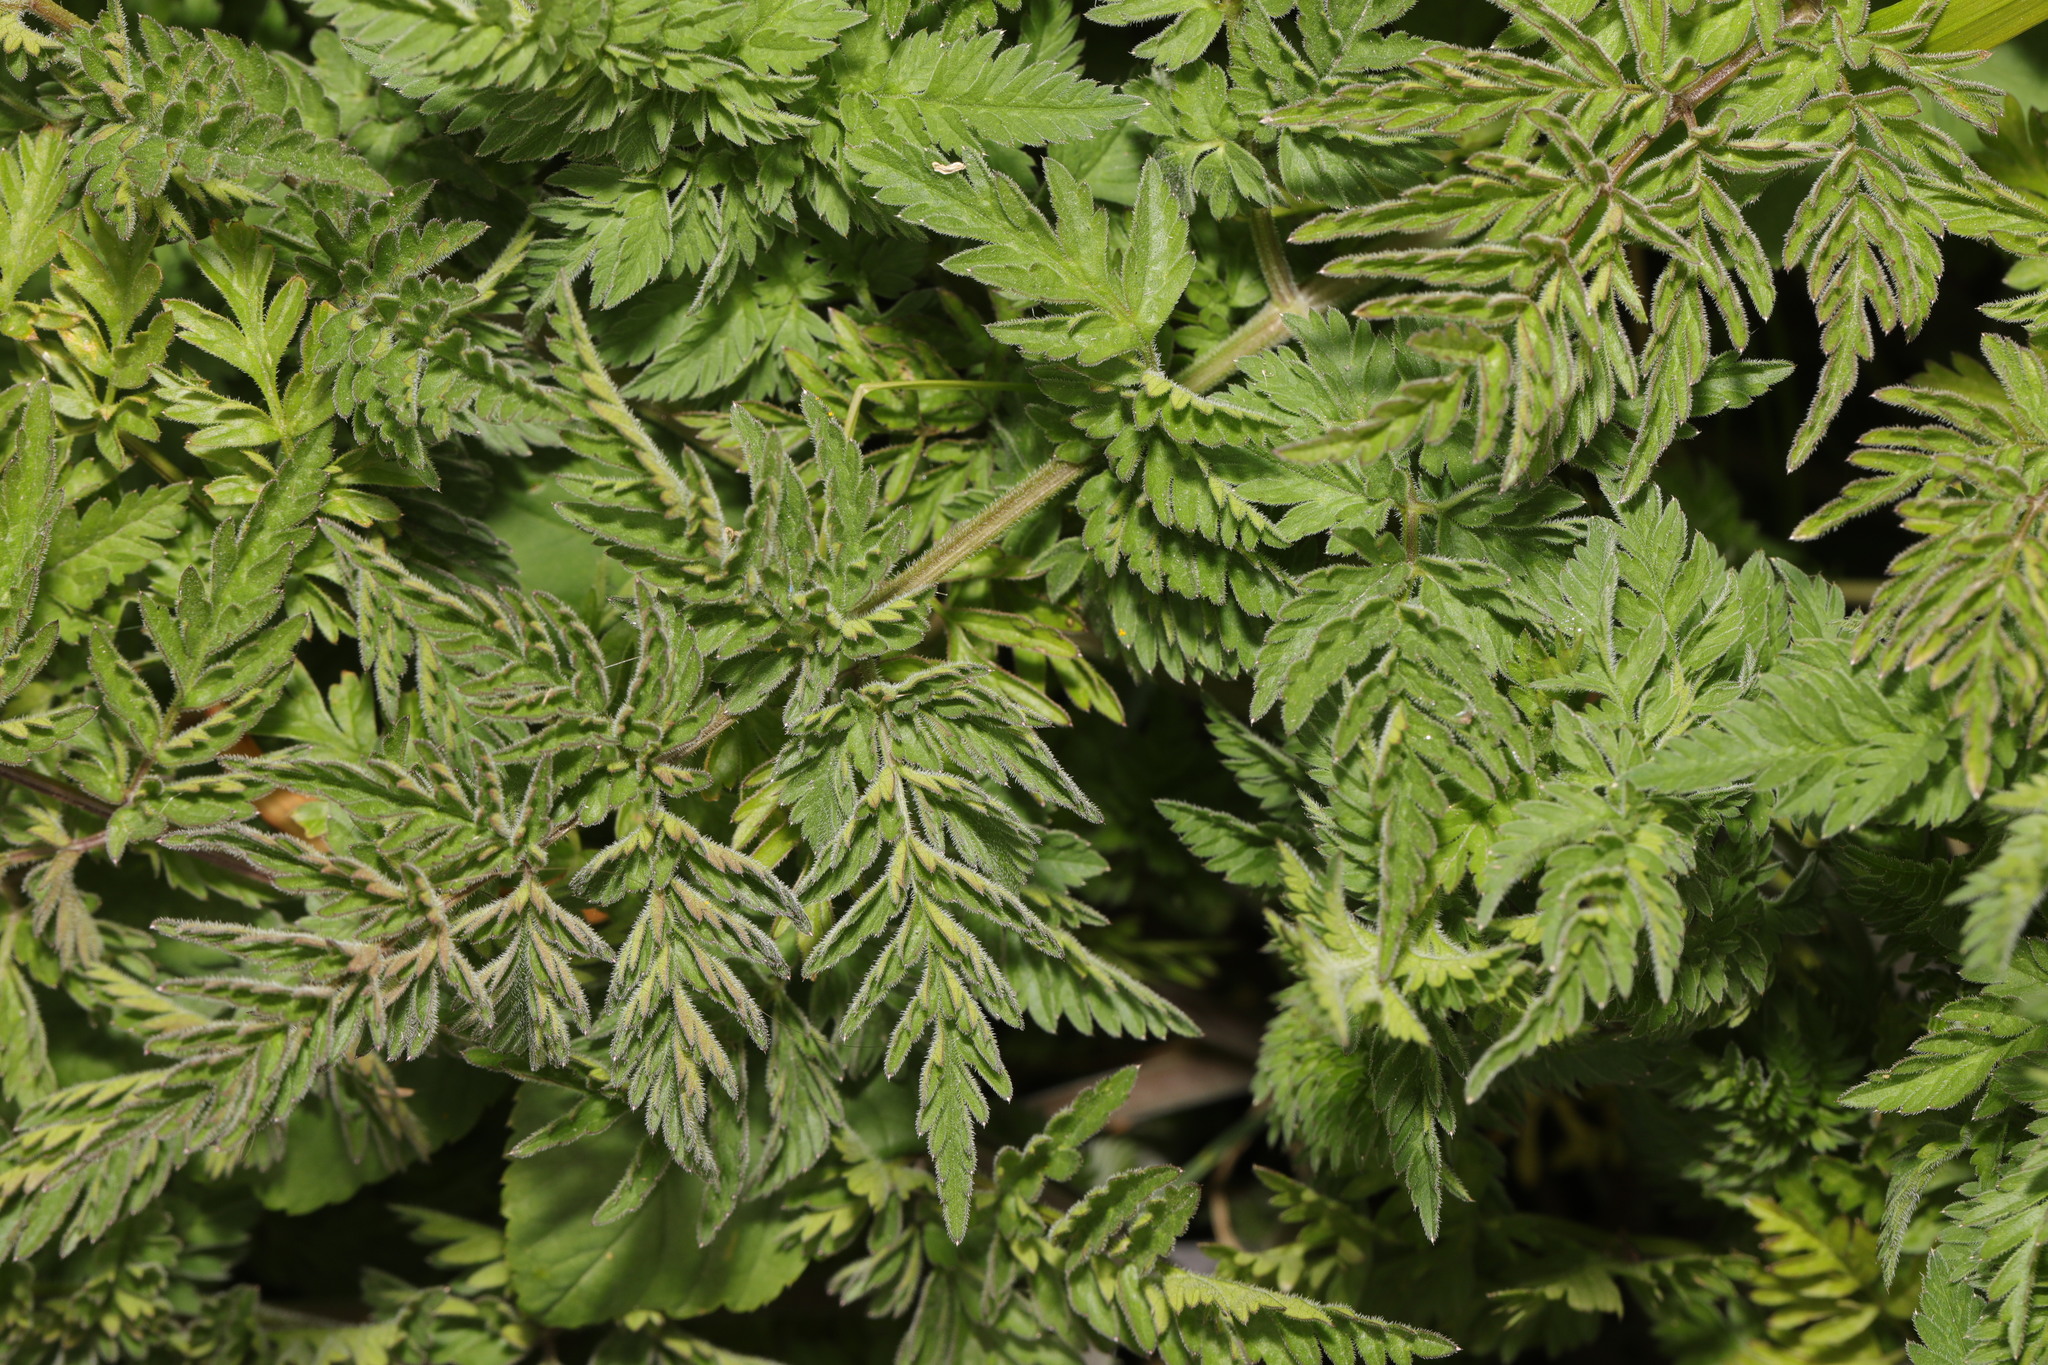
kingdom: Plantae
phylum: Tracheophyta
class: Magnoliopsida
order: Apiales
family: Apiaceae
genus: Anthriscus
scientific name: Anthriscus sylvestris
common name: Cow parsley
